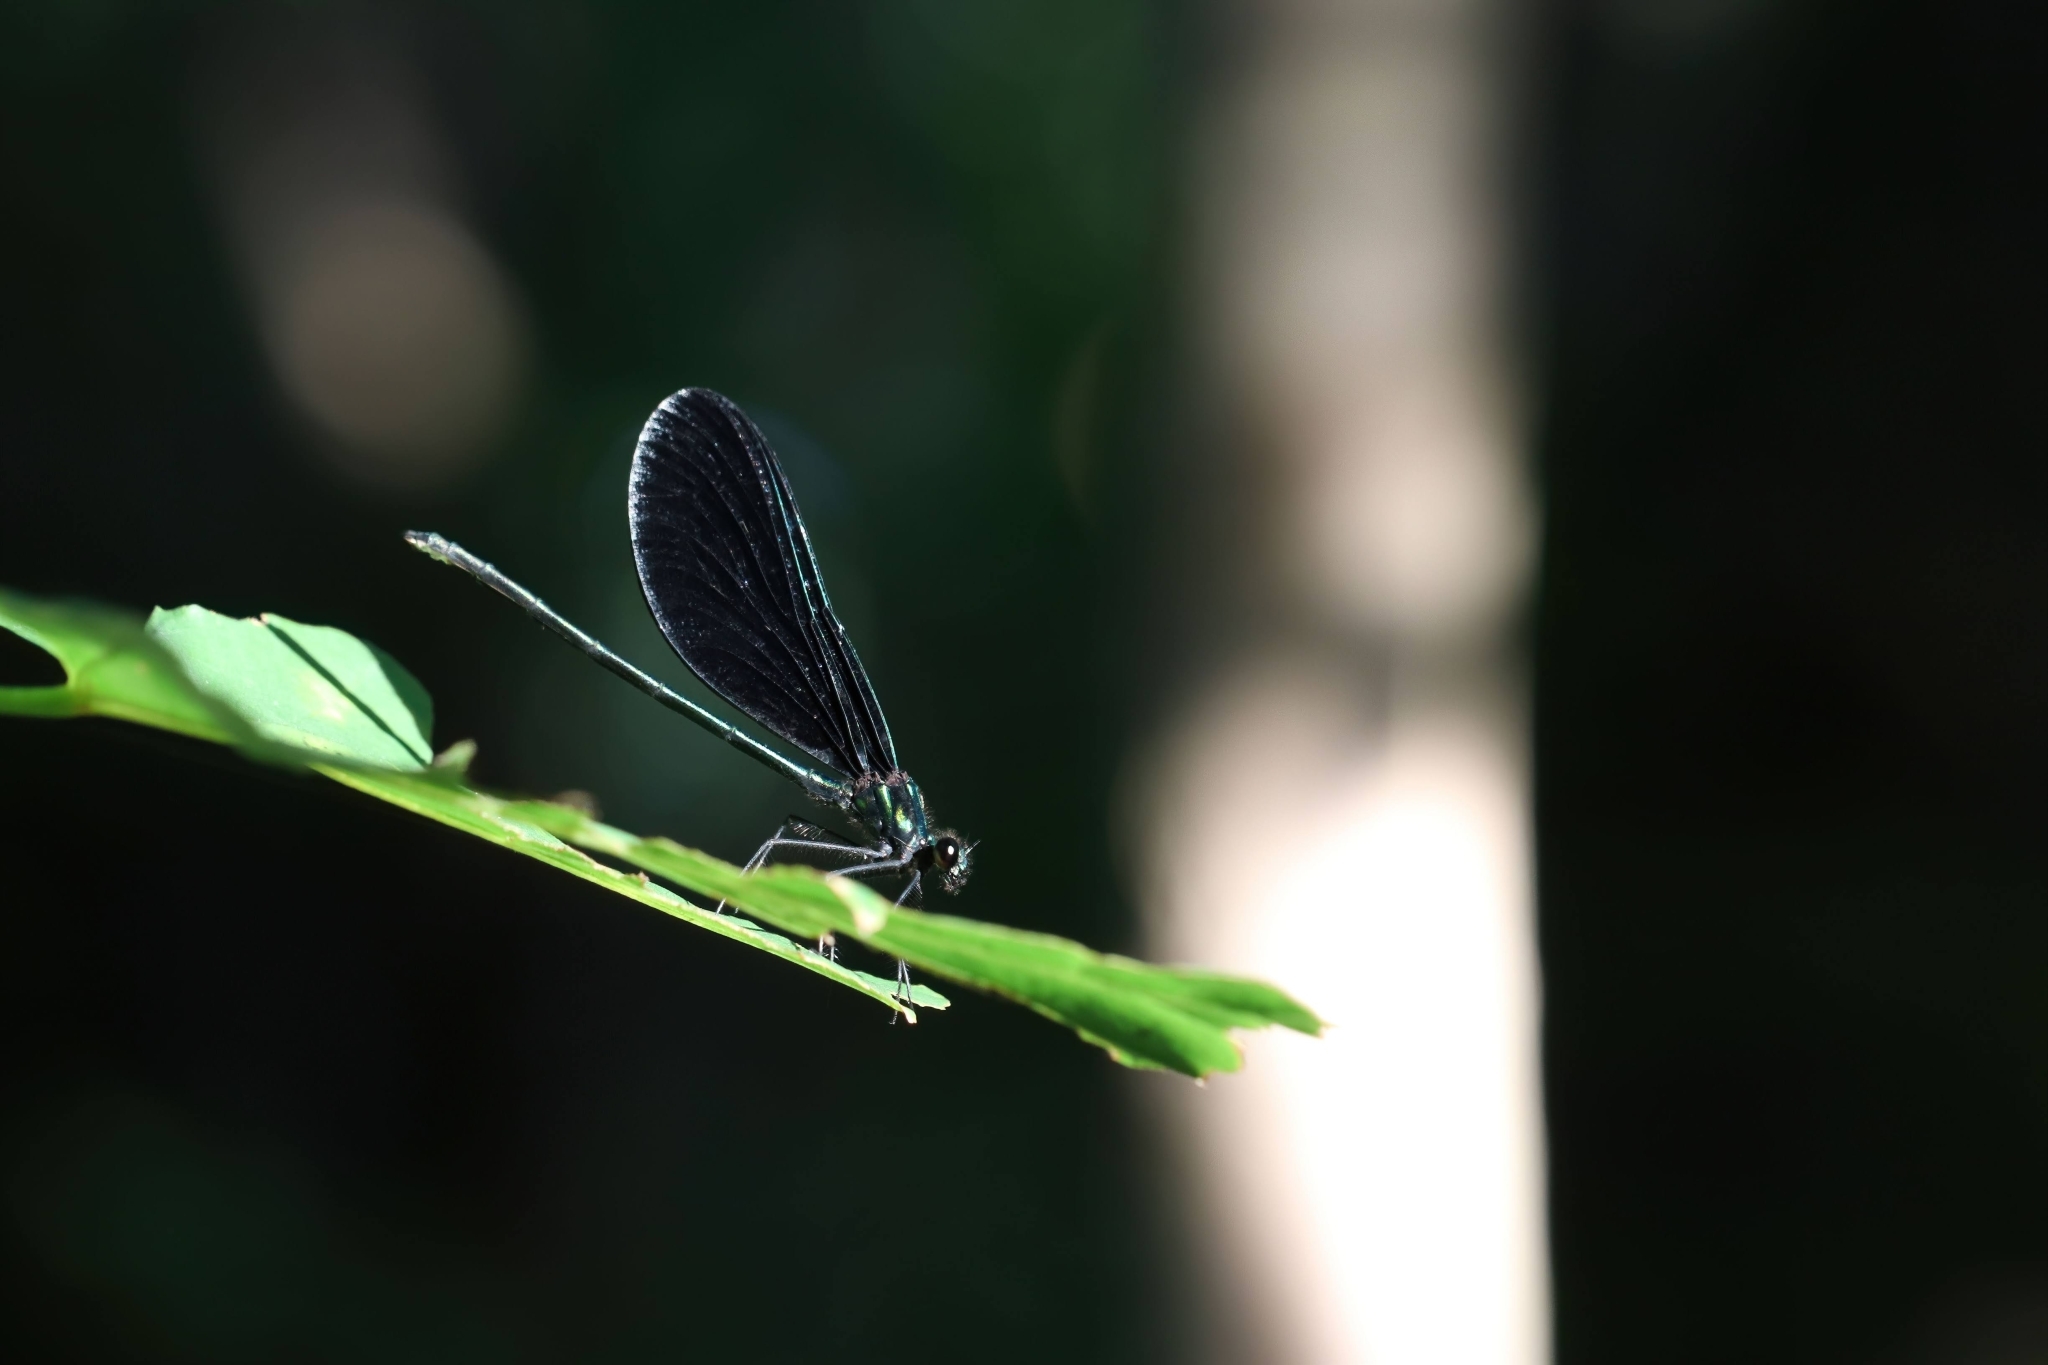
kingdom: Animalia
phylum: Arthropoda
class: Insecta
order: Odonata
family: Calopterygidae
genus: Calopteryx
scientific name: Calopteryx maculata
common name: Ebony jewelwing
